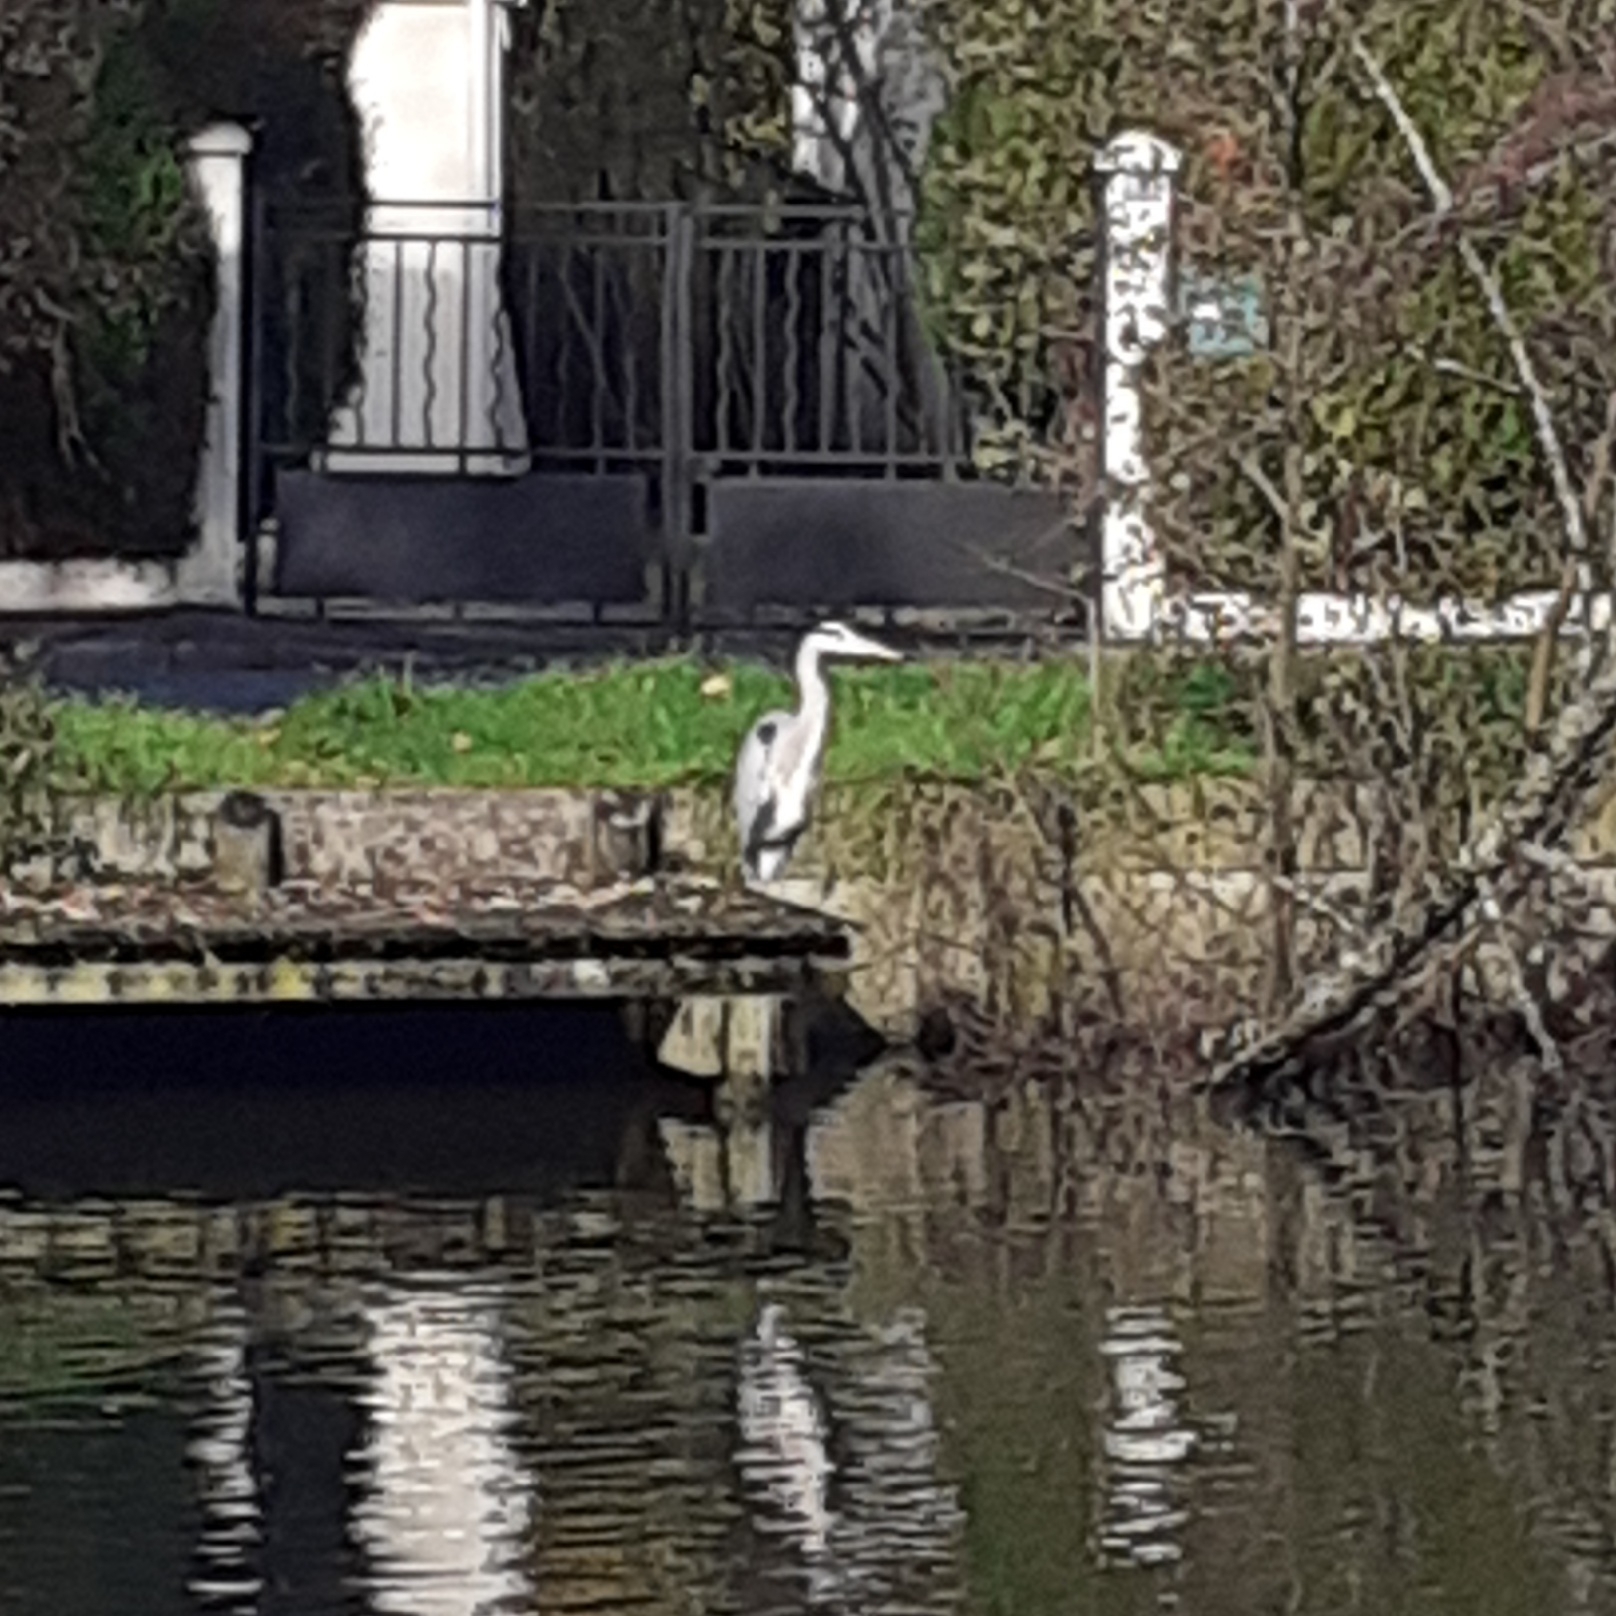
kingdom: Animalia
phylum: Chordata
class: Aves
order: Pelecaniformes
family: Ardeidae
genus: Ardea
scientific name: Ardea cinerea
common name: Grey heron
